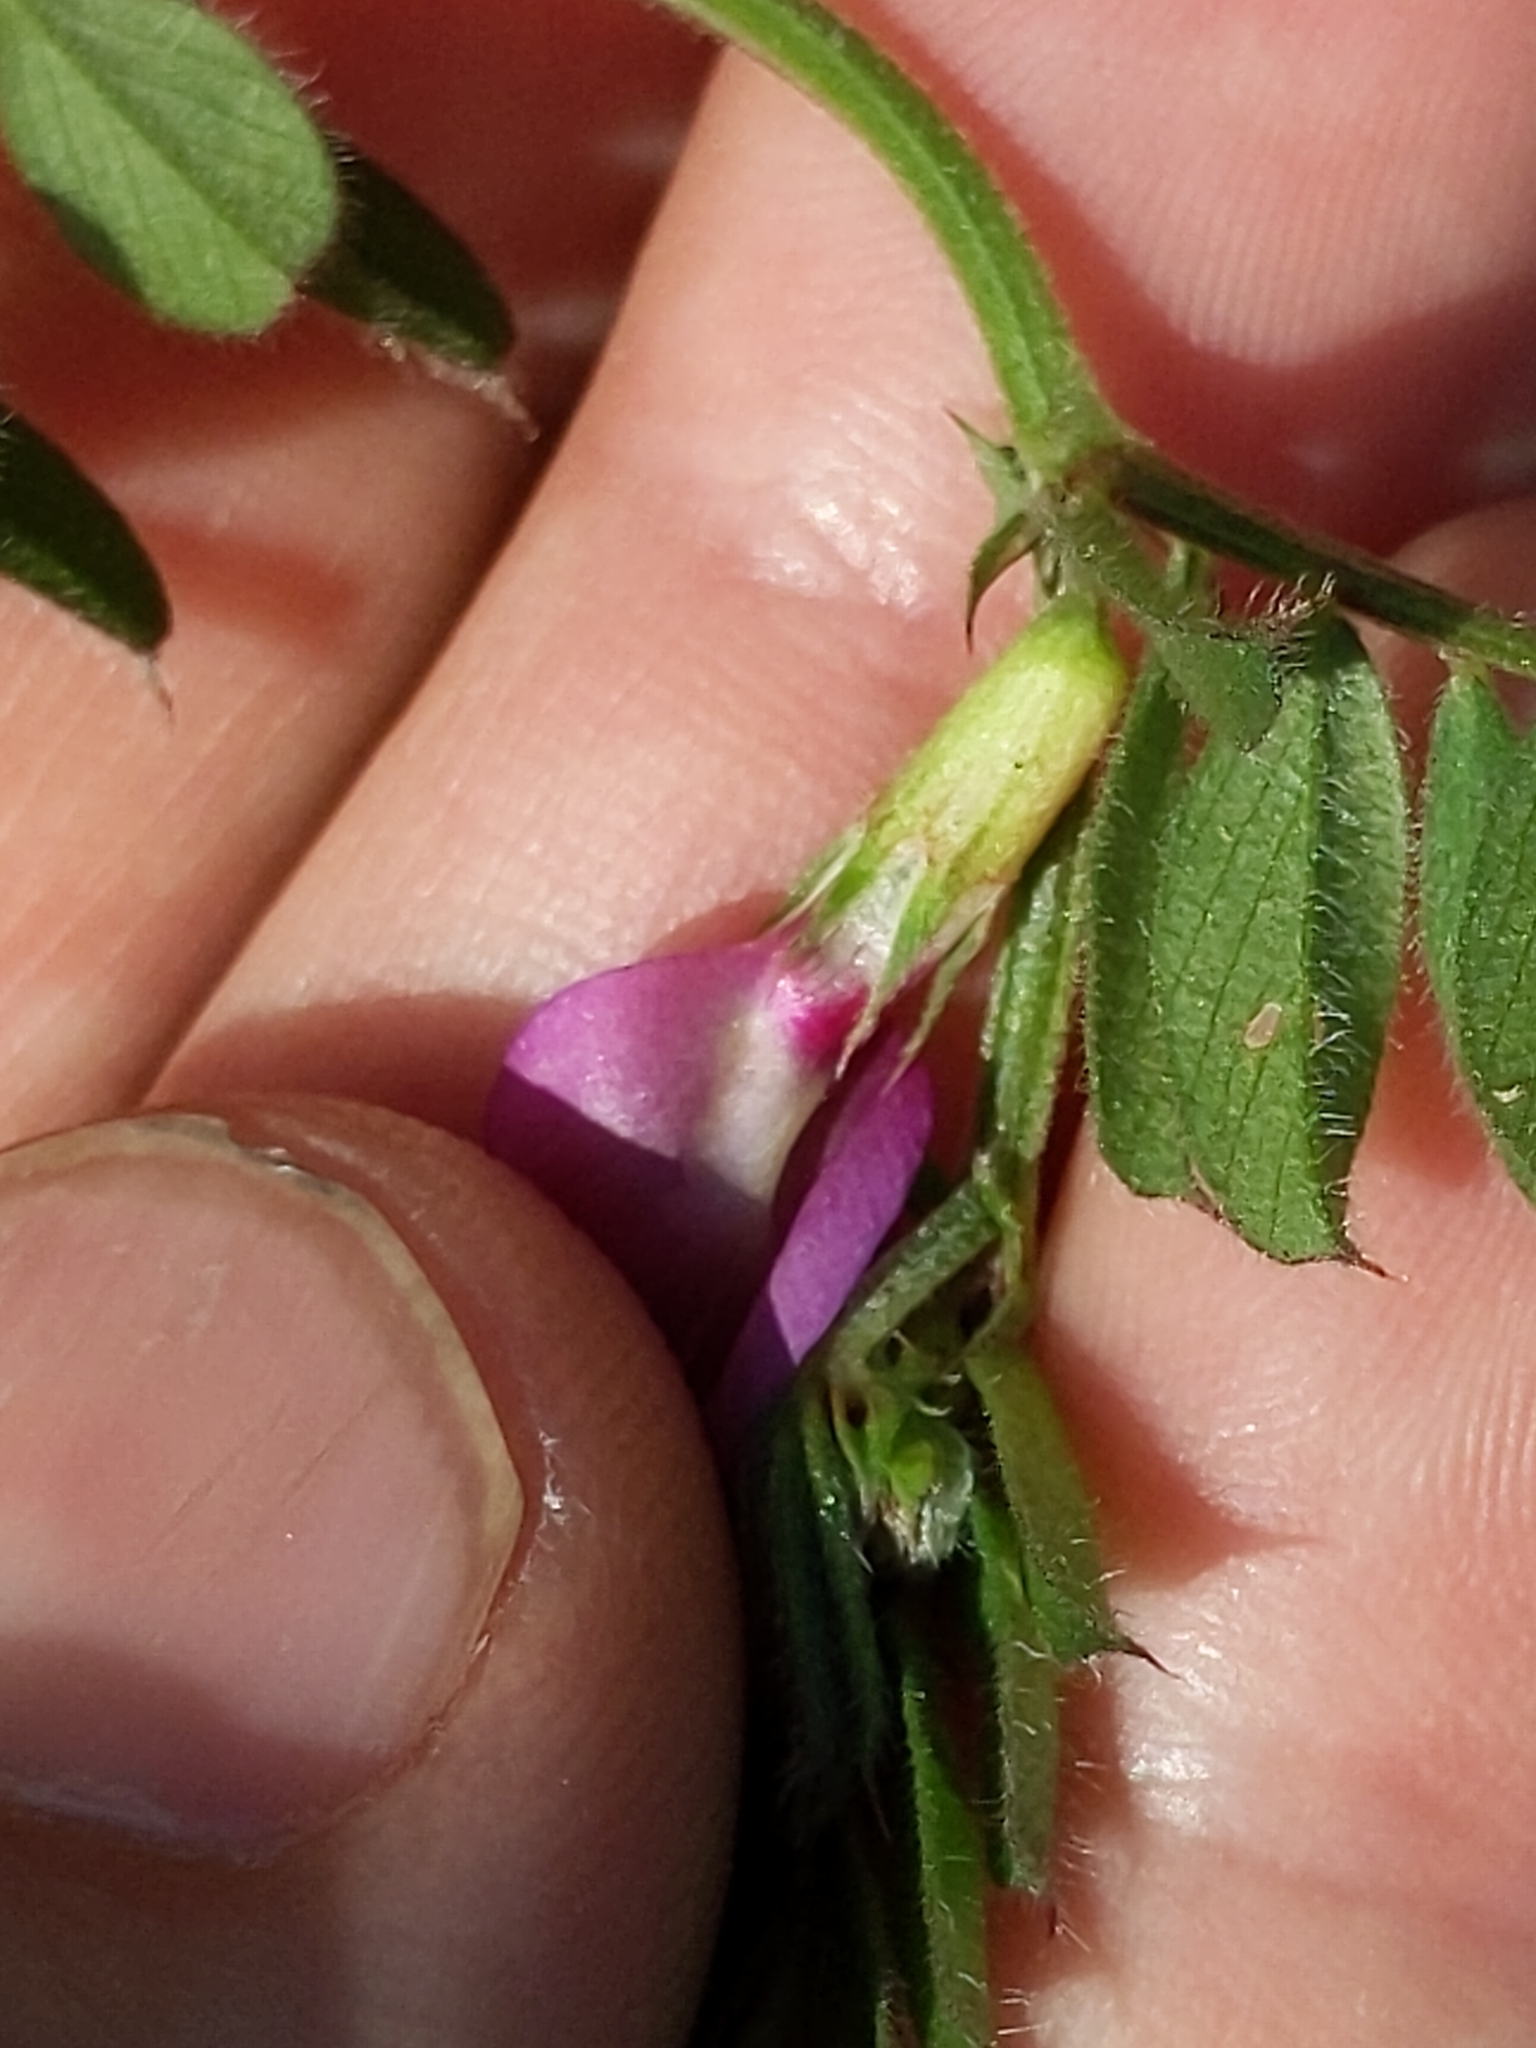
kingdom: Plantae
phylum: Tracheophyta
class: Magnoliopsida
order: Fabales
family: Fabaceae
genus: Vicia
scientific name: Vicia sativa
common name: Garden vetch
